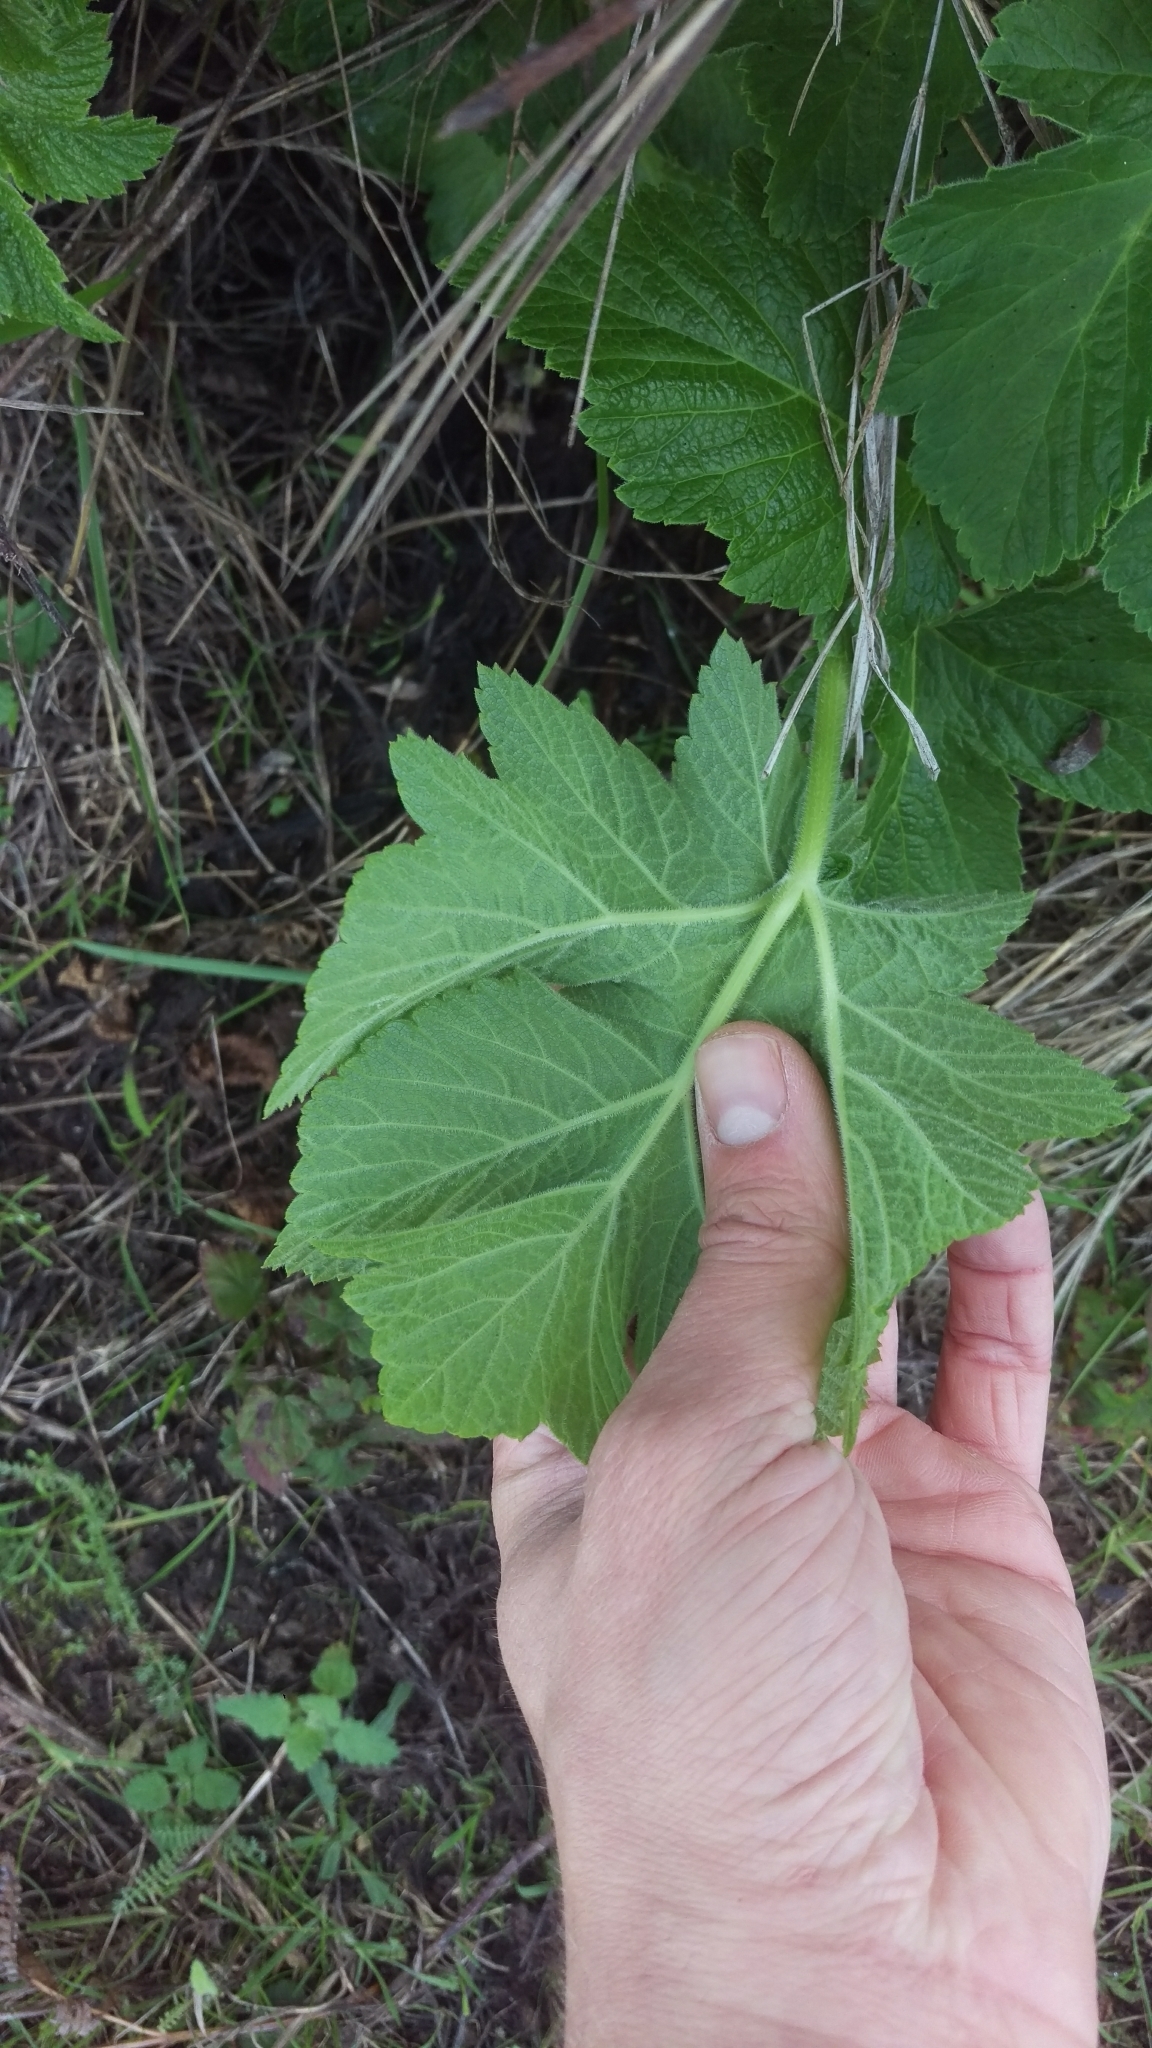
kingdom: Plantae
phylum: Tracheophyta
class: Magnoliopsida
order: Apiales
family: Apiaceae
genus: Heracleum
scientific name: Heracleum maximum
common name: American cow parsnip
